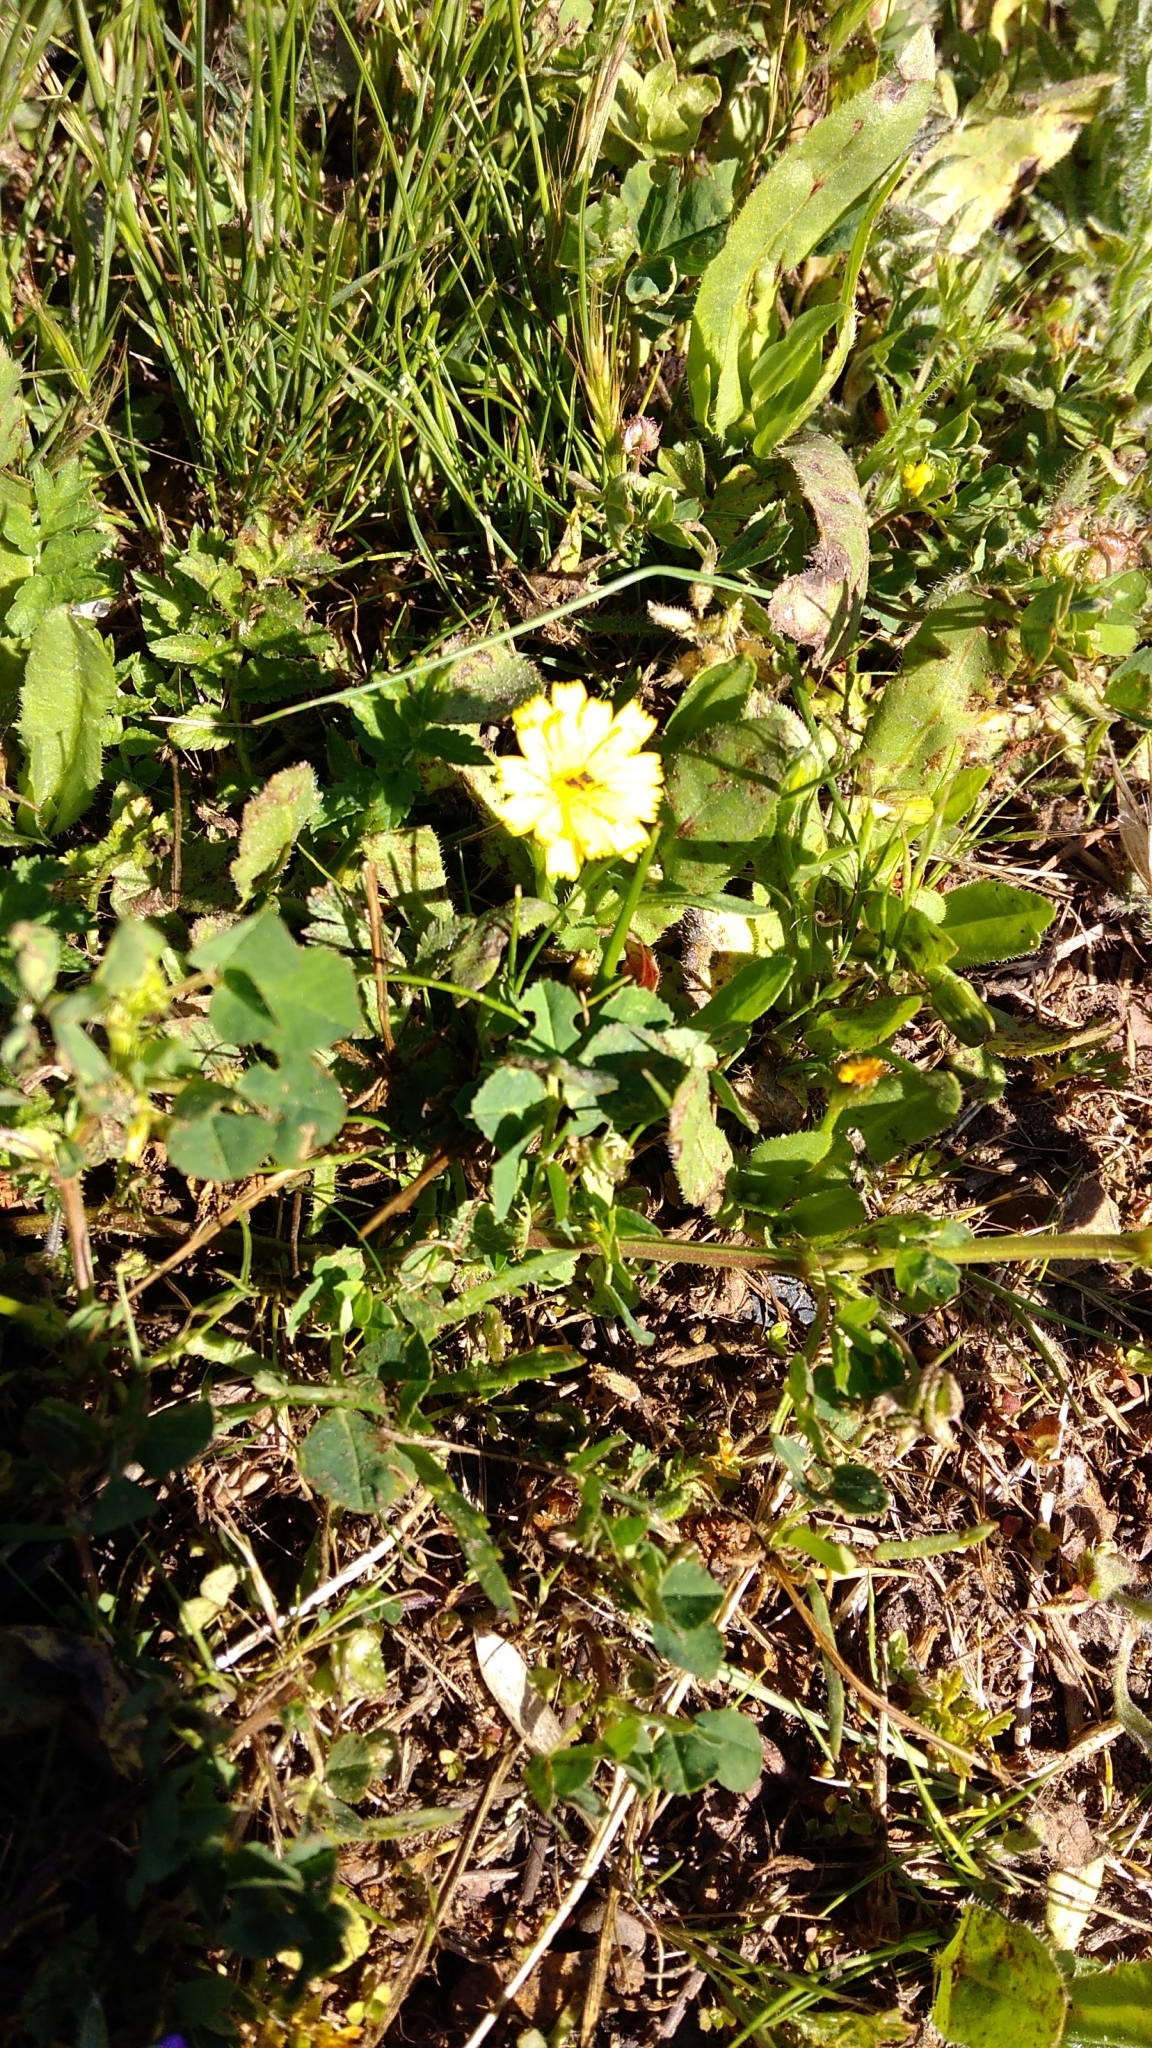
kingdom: Plantae
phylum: Tracheophyta
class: Magnoliopsida
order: Asterales
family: Asteraceae
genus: Hedypnois
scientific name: Hedypnois rhagadioloides
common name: Cretan weed
